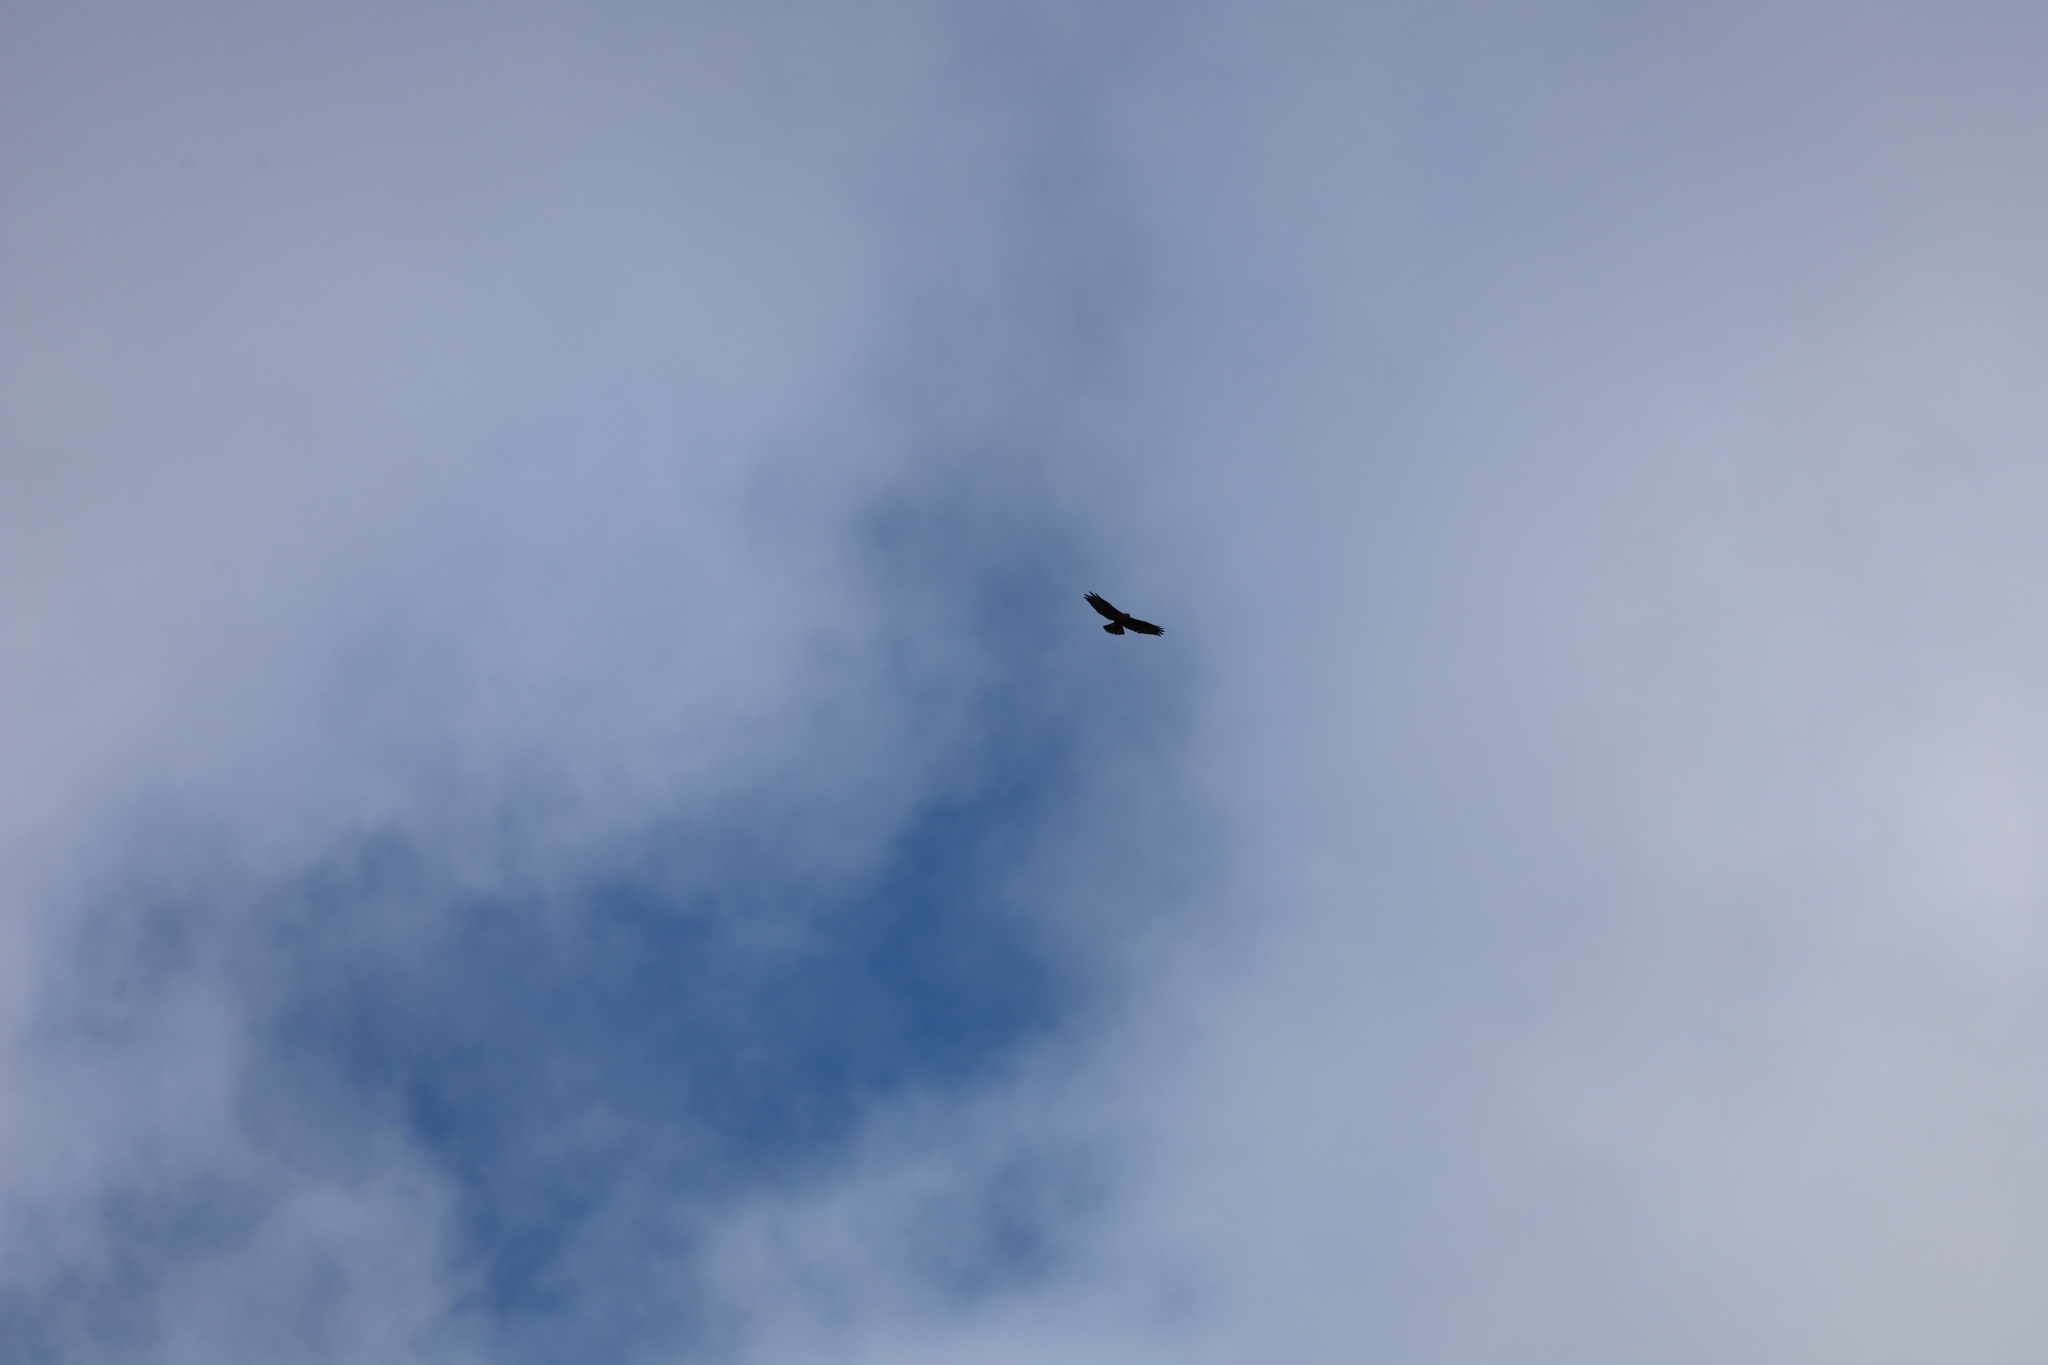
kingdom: Animalia
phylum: Chordata
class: Aves
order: Accipitriformes
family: Accipitridae
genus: Buteo
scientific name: Buteo buteo
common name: Common buzzard
